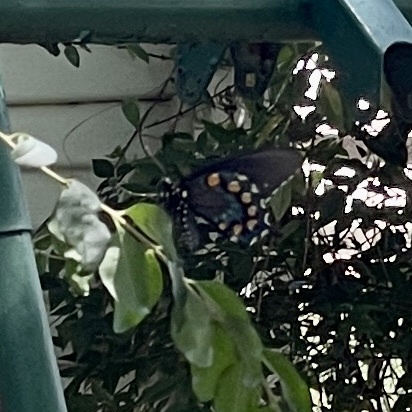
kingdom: Animalia
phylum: Arthropoda
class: Insecta
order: Lepidoptera
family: Papilionidae
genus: Battus
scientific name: Battus philenor
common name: Pipevine swallowtail
